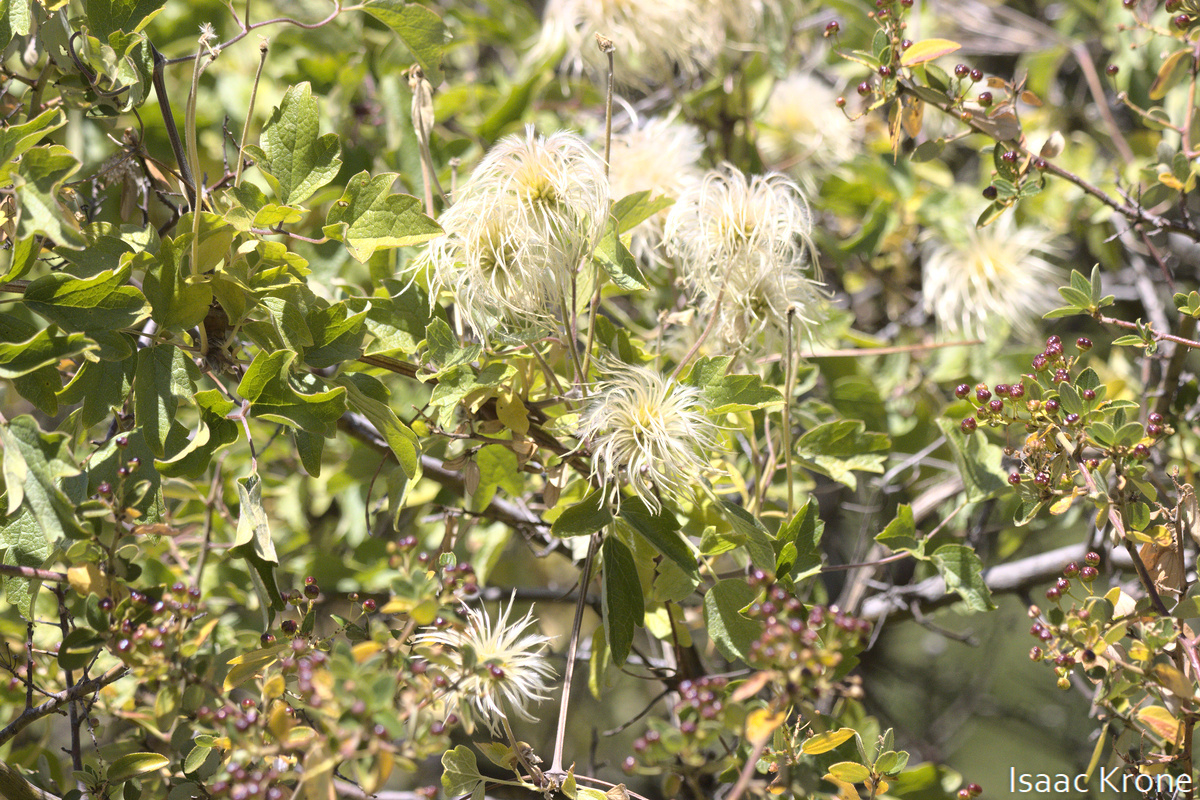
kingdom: Plantae
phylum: Tracheophyta
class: Magnoliopsida
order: Ranunculales
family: Ranunculaceae
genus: Clematis
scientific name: Clematis lasiantha
